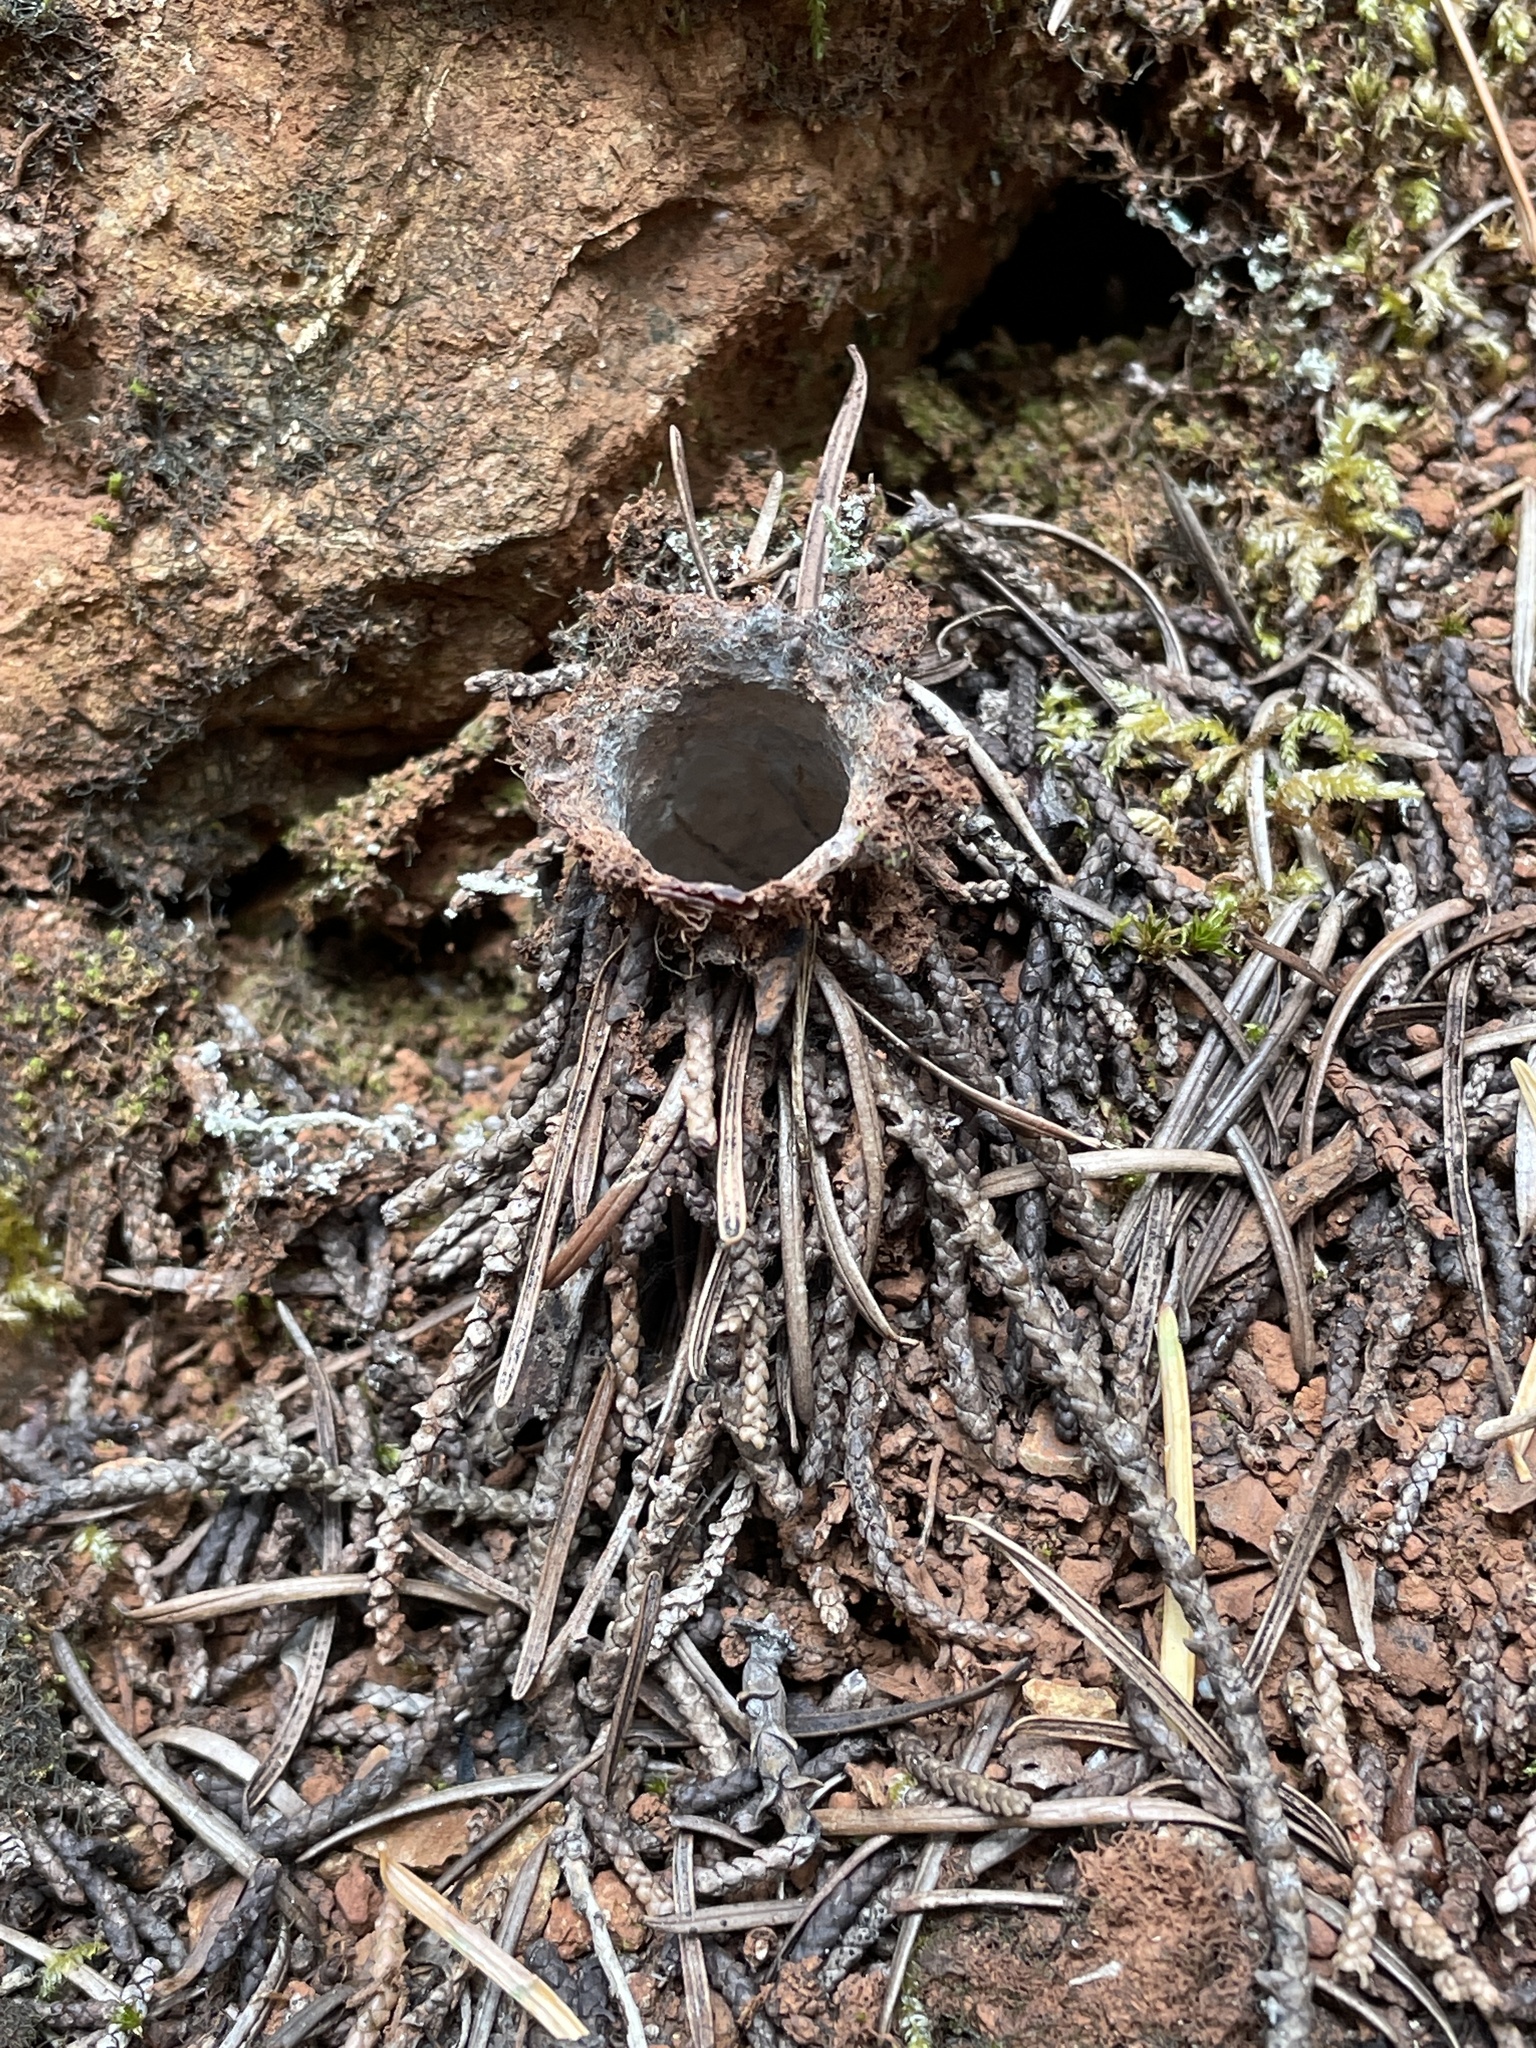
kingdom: Animalia
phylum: Arthropoda
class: Arachnida
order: Araneae
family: Antrodiaetidae
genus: Atypoides
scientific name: Atypoides riversi
